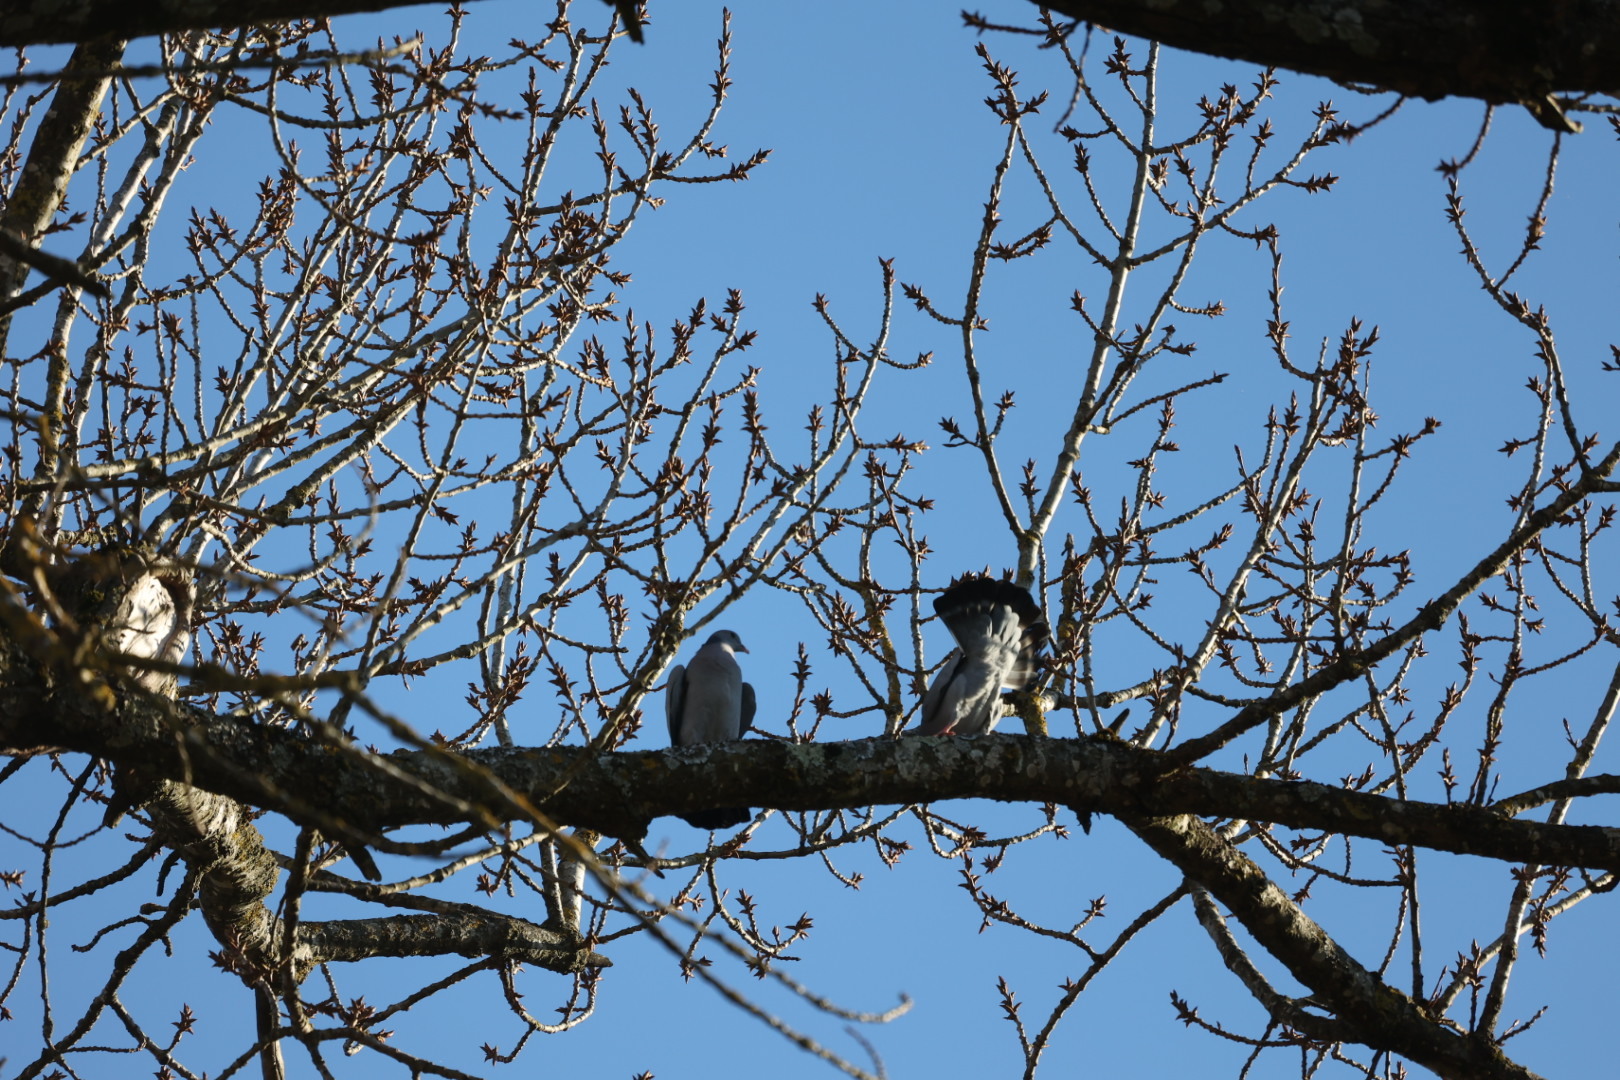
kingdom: Animalia
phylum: Chordata
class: Aves
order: Columbiformes
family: Columbidae
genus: Columba
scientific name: Columba oenas
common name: Stock dove
